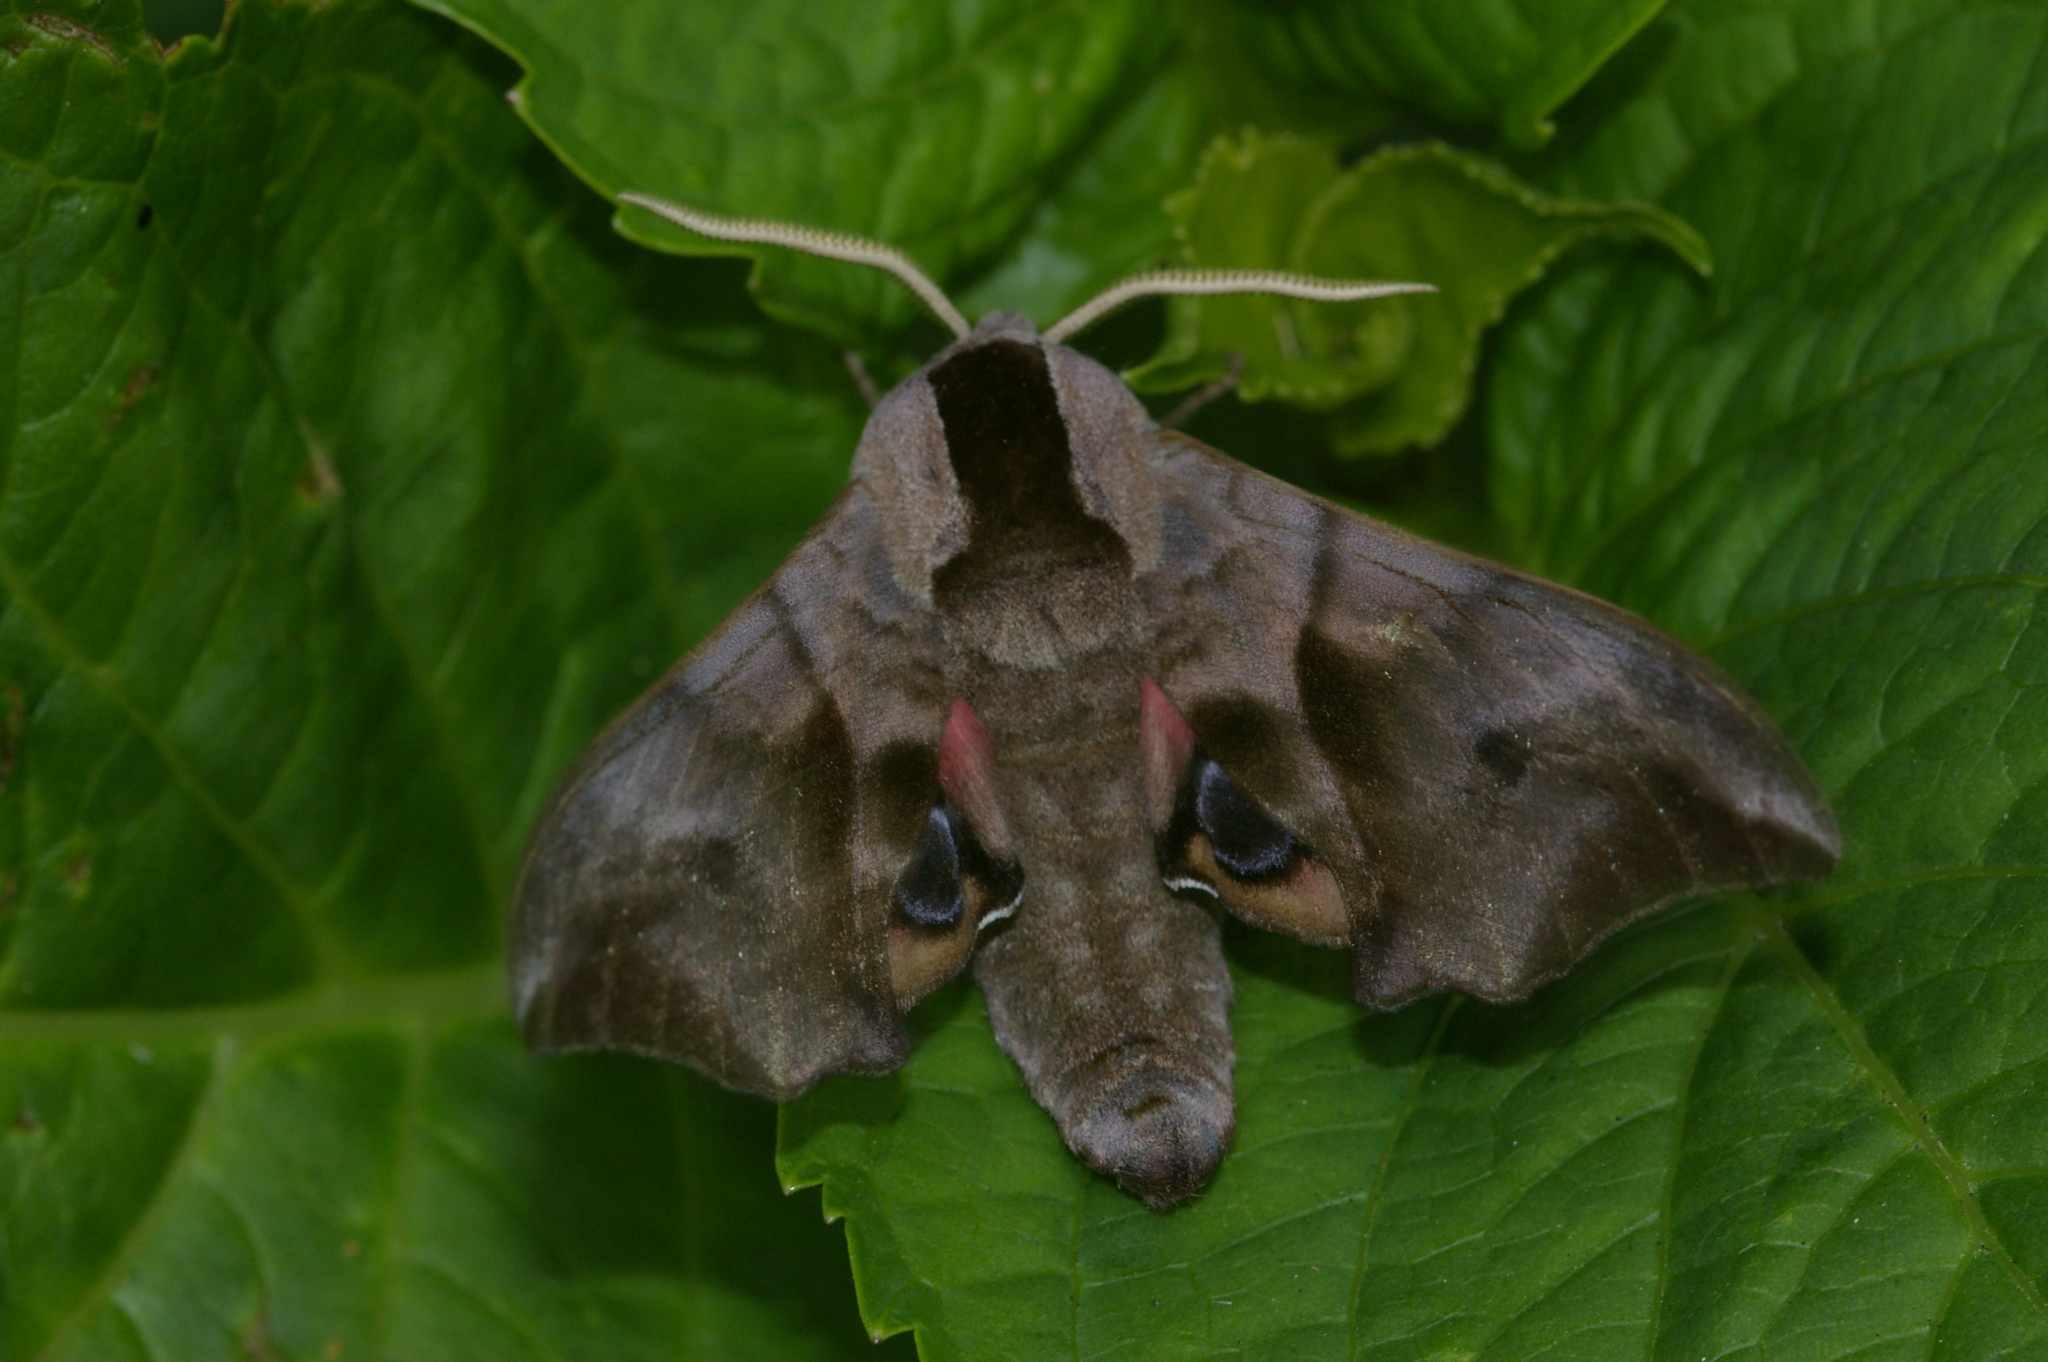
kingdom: Animalia
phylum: Arthropoda
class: Insecta
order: Lepidoptera
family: Sphingidae
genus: Smerinthus
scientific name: Smerinthus ocellata
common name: Eyed hawk-moth
